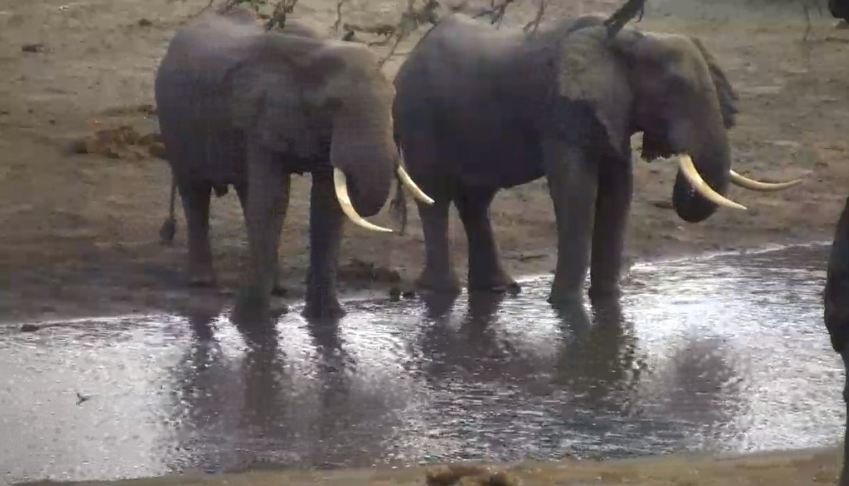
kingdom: Animalia
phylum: Chordata
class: Mammalia
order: Proboscidea
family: Elephantidae
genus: Loxodonta
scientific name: Loxodonta africana
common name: African elephant
